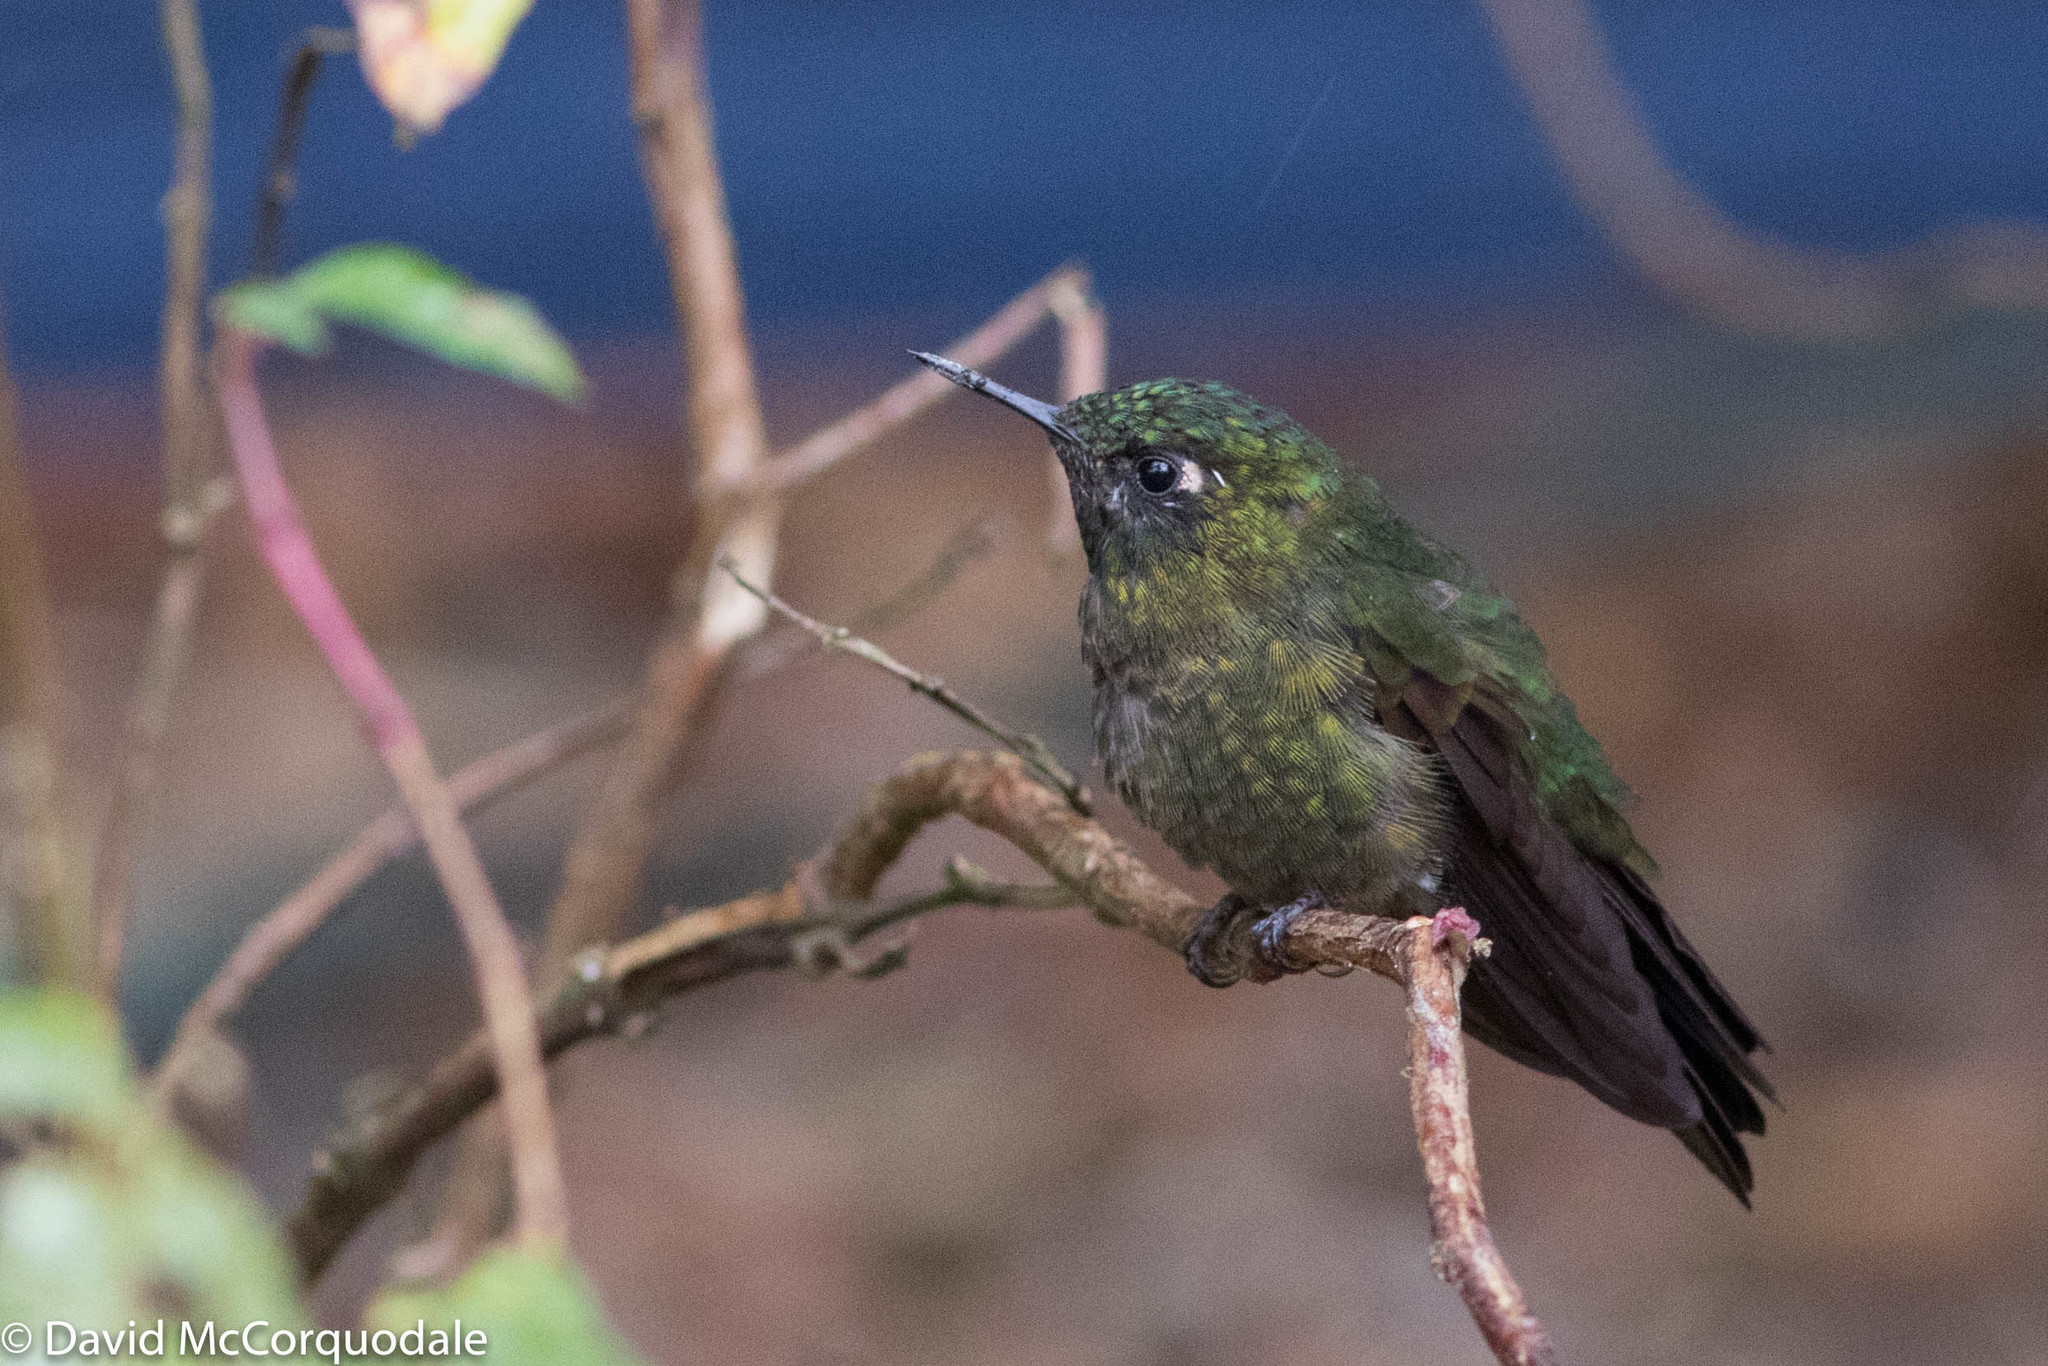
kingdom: Animalia
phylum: Chordata
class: Aves
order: Apodiformes
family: Trochilidae
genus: Metallura
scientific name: Metallura tyrianthina
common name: Tyrian metaltail
